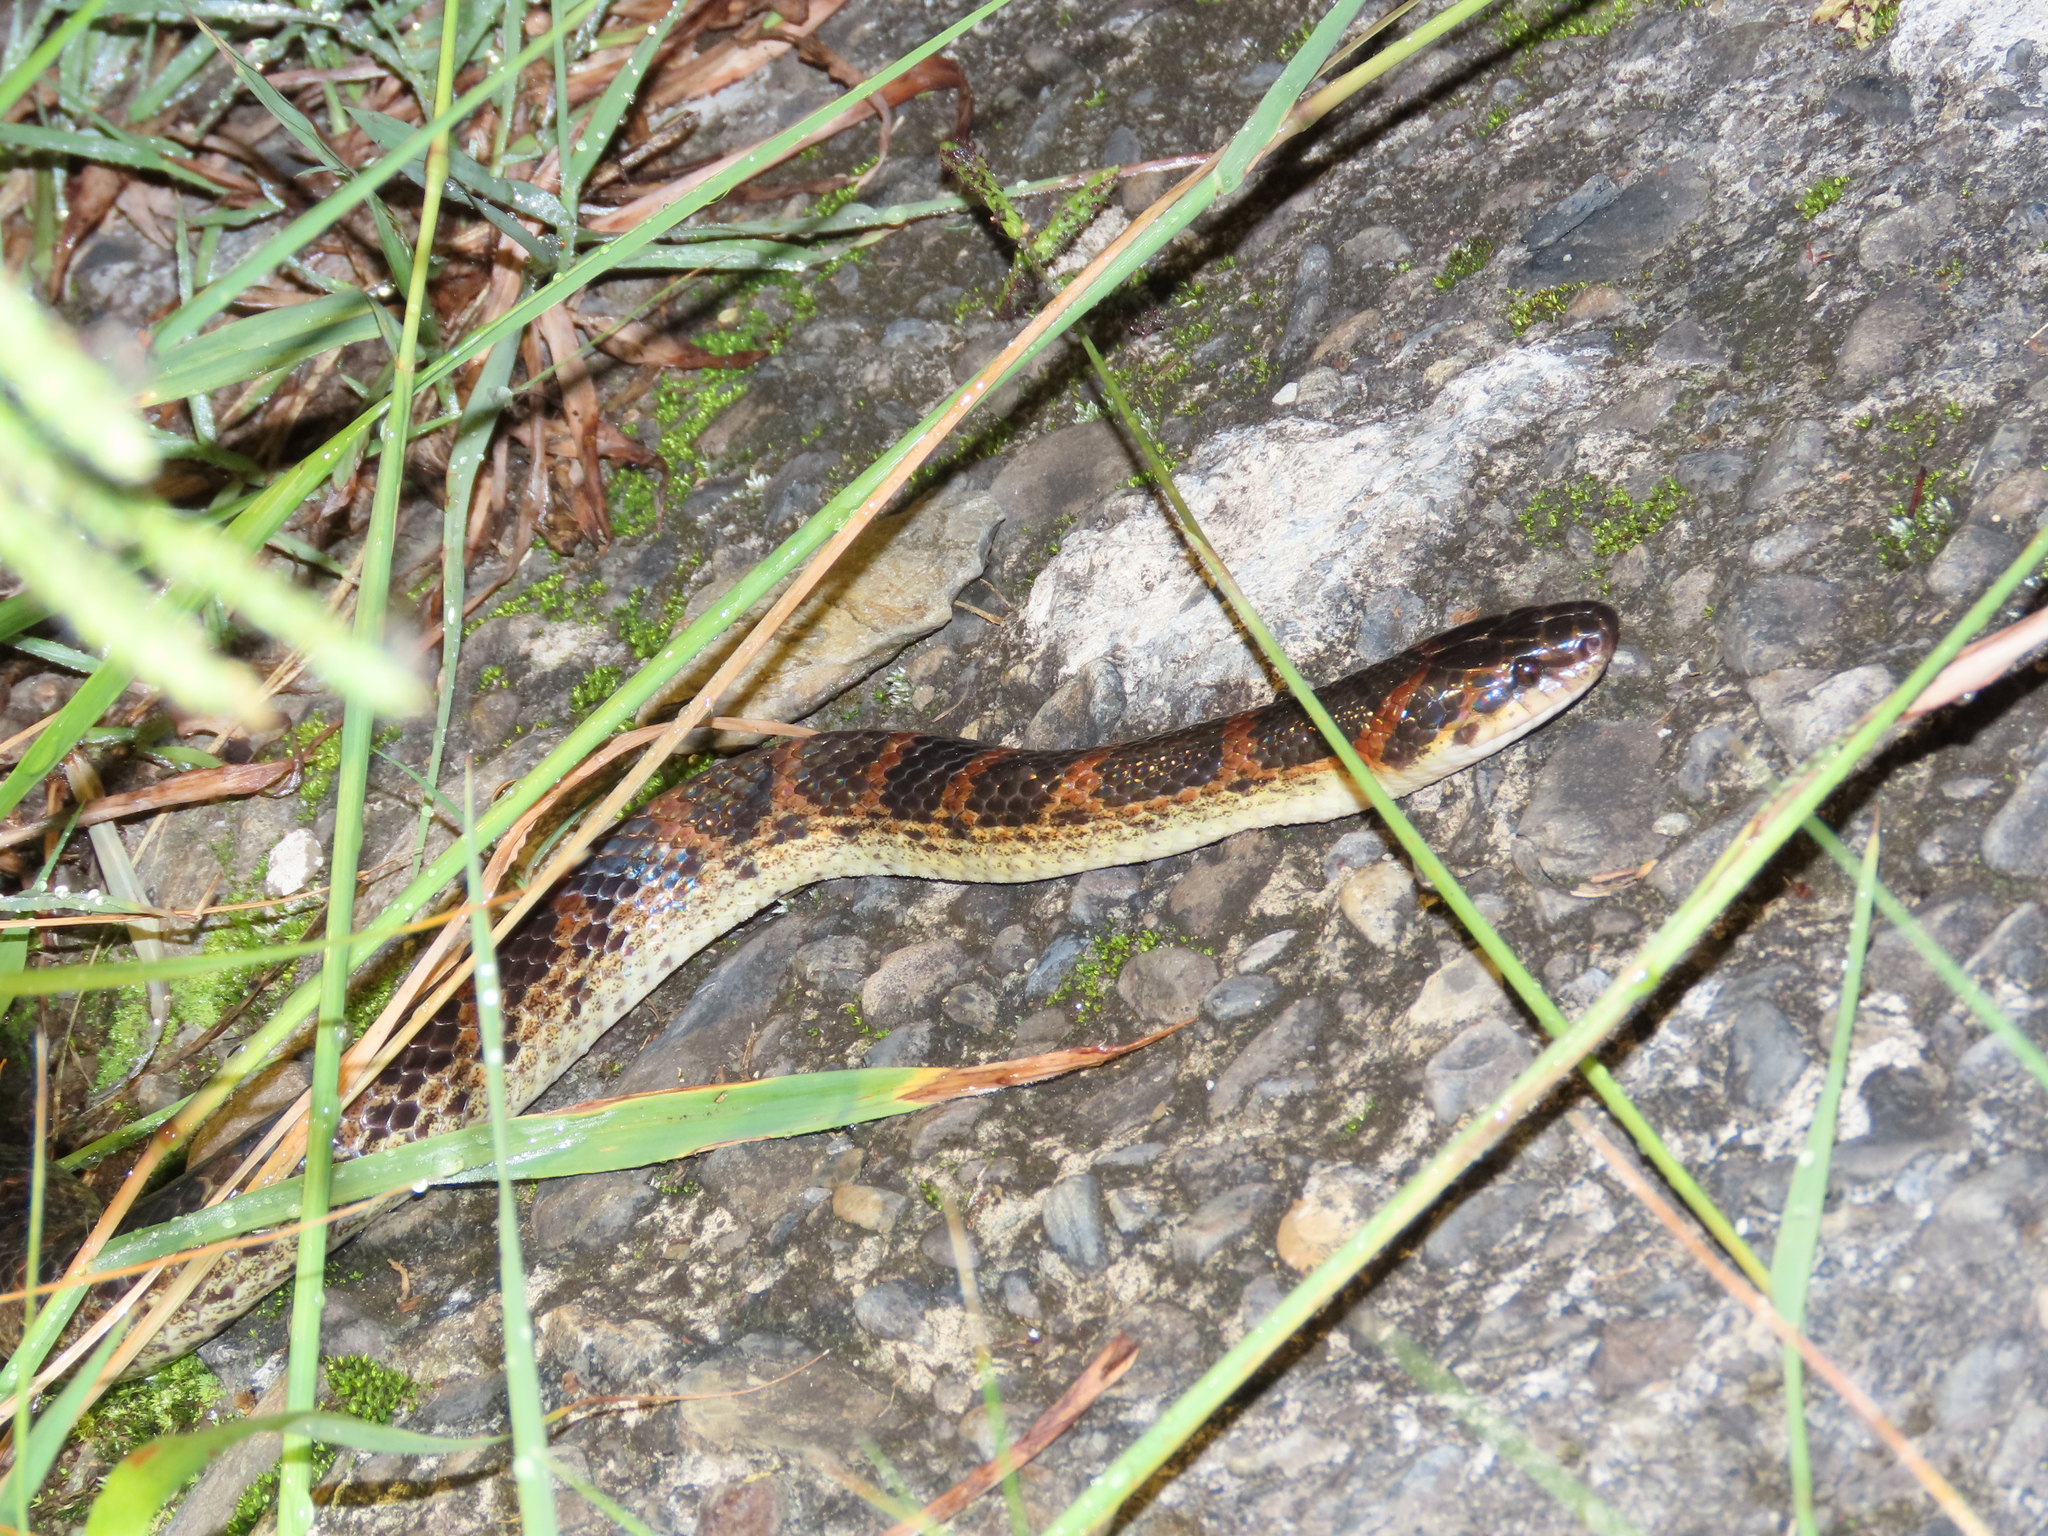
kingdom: Animalia
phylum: Chordata
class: Squamata
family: Colubridae
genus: Lycodon
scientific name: Lycodon rufozonatus
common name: Red-banded snake
